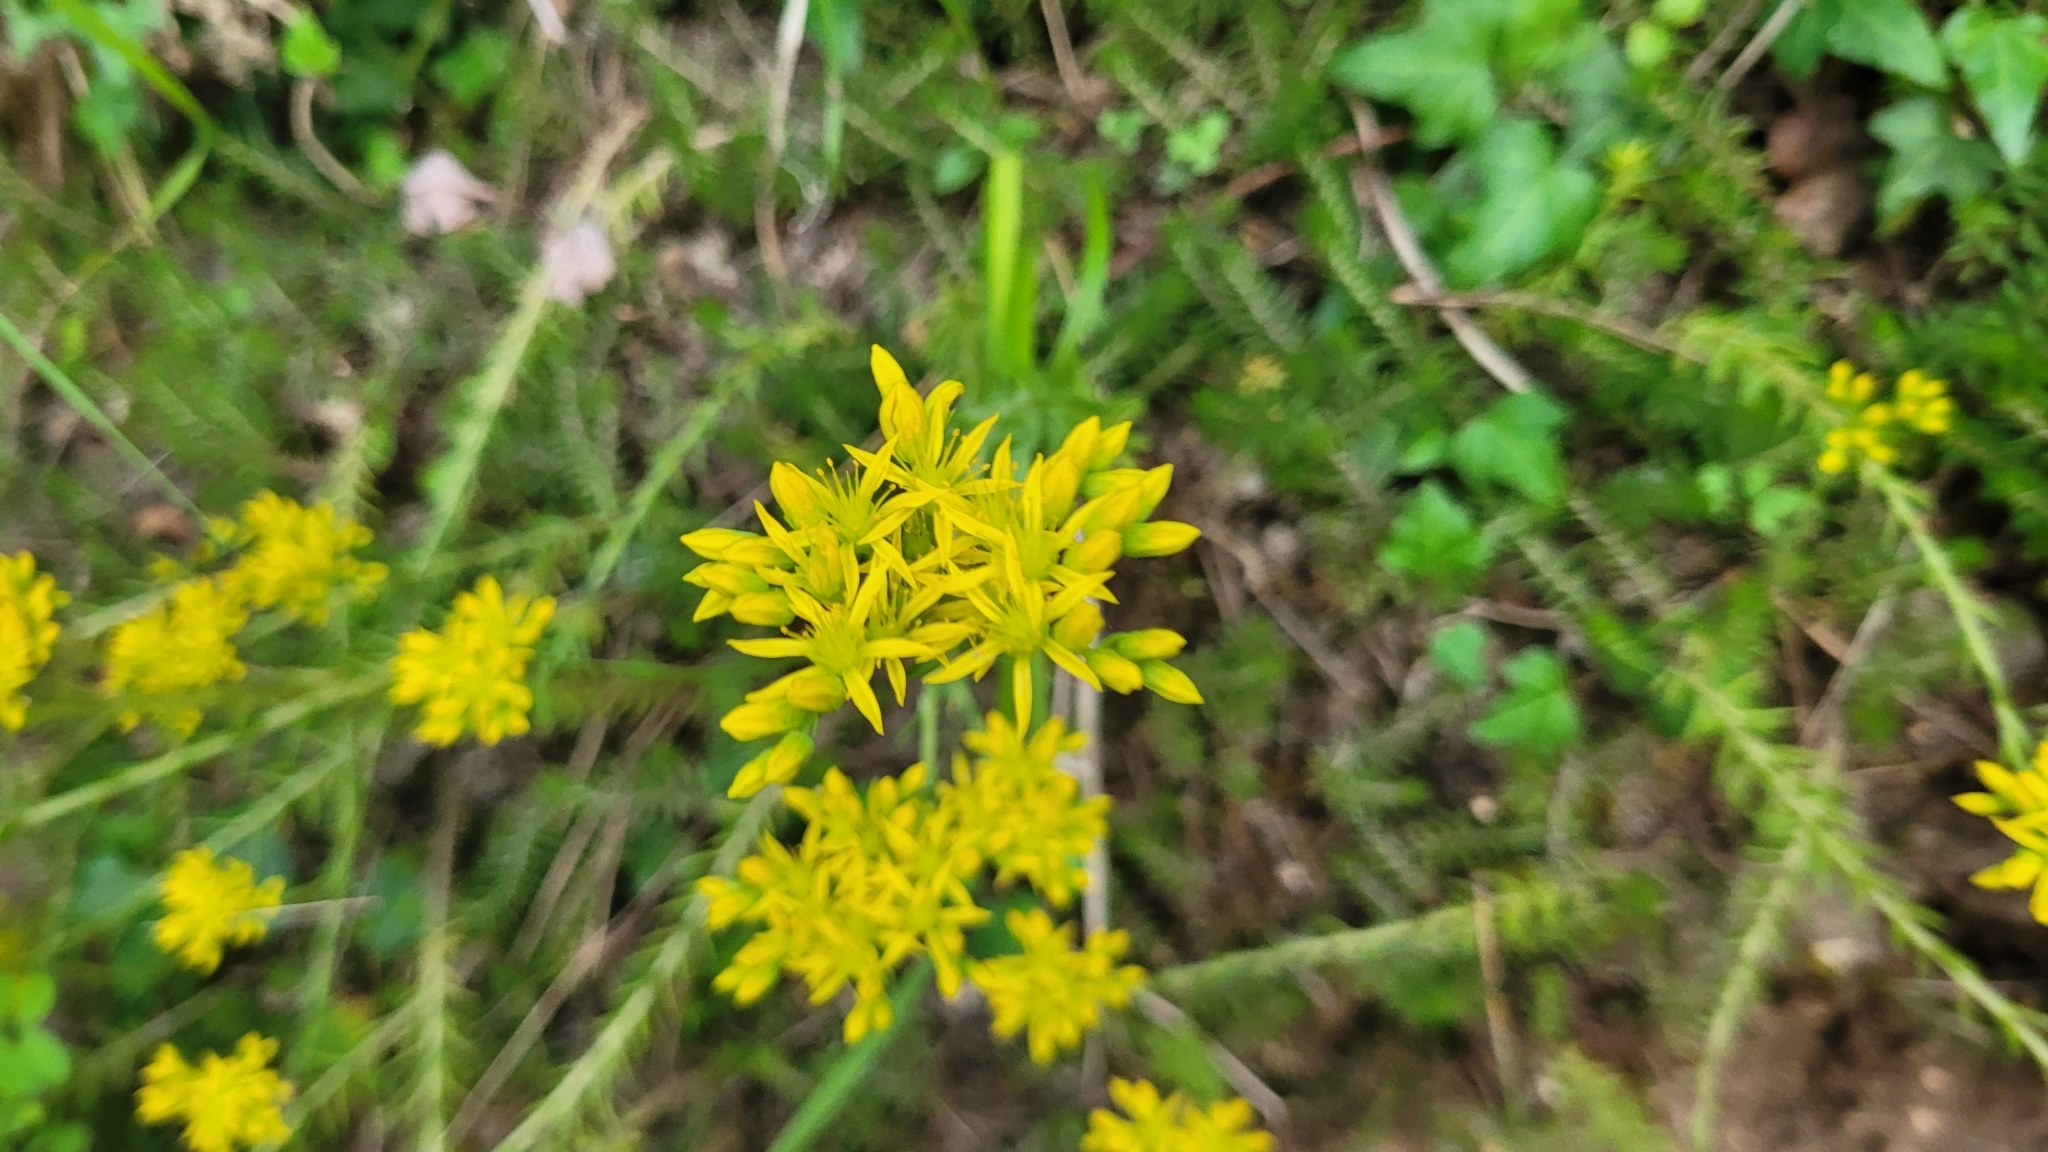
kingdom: Plantae
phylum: Tracheophyta
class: Magnoliopsida
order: Saxifragales
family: Crassulaceae
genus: Petrosedum
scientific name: Petrosedum rupestre
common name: Jenny's stonecrop
